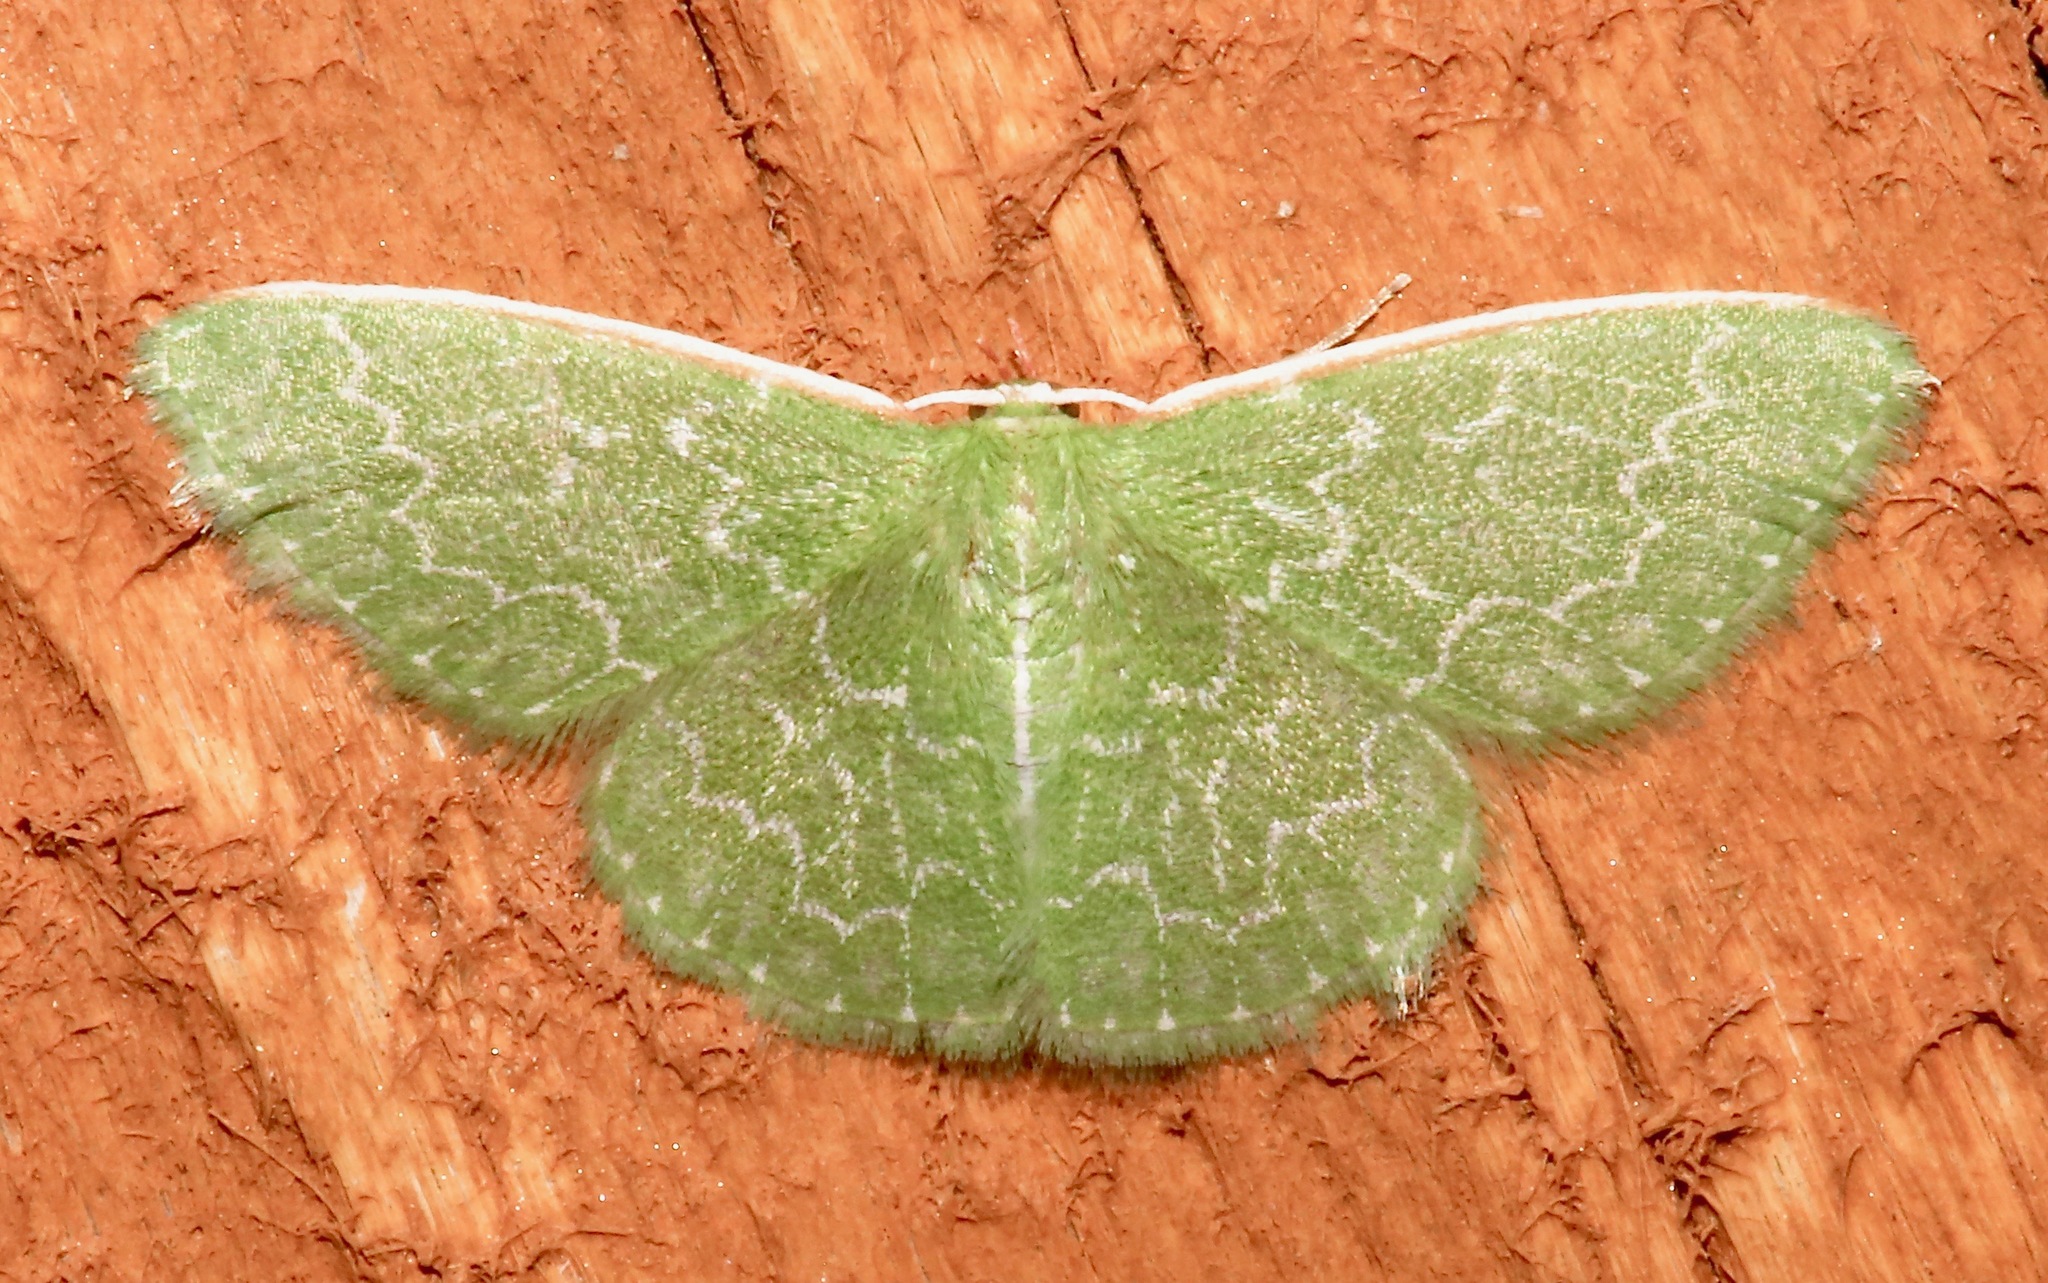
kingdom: Animalia
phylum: Arthropoda
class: Insecta
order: Lepidoptera
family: Geometridae
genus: Synchlora
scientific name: Synchlora frondaria
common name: Southern emerald
